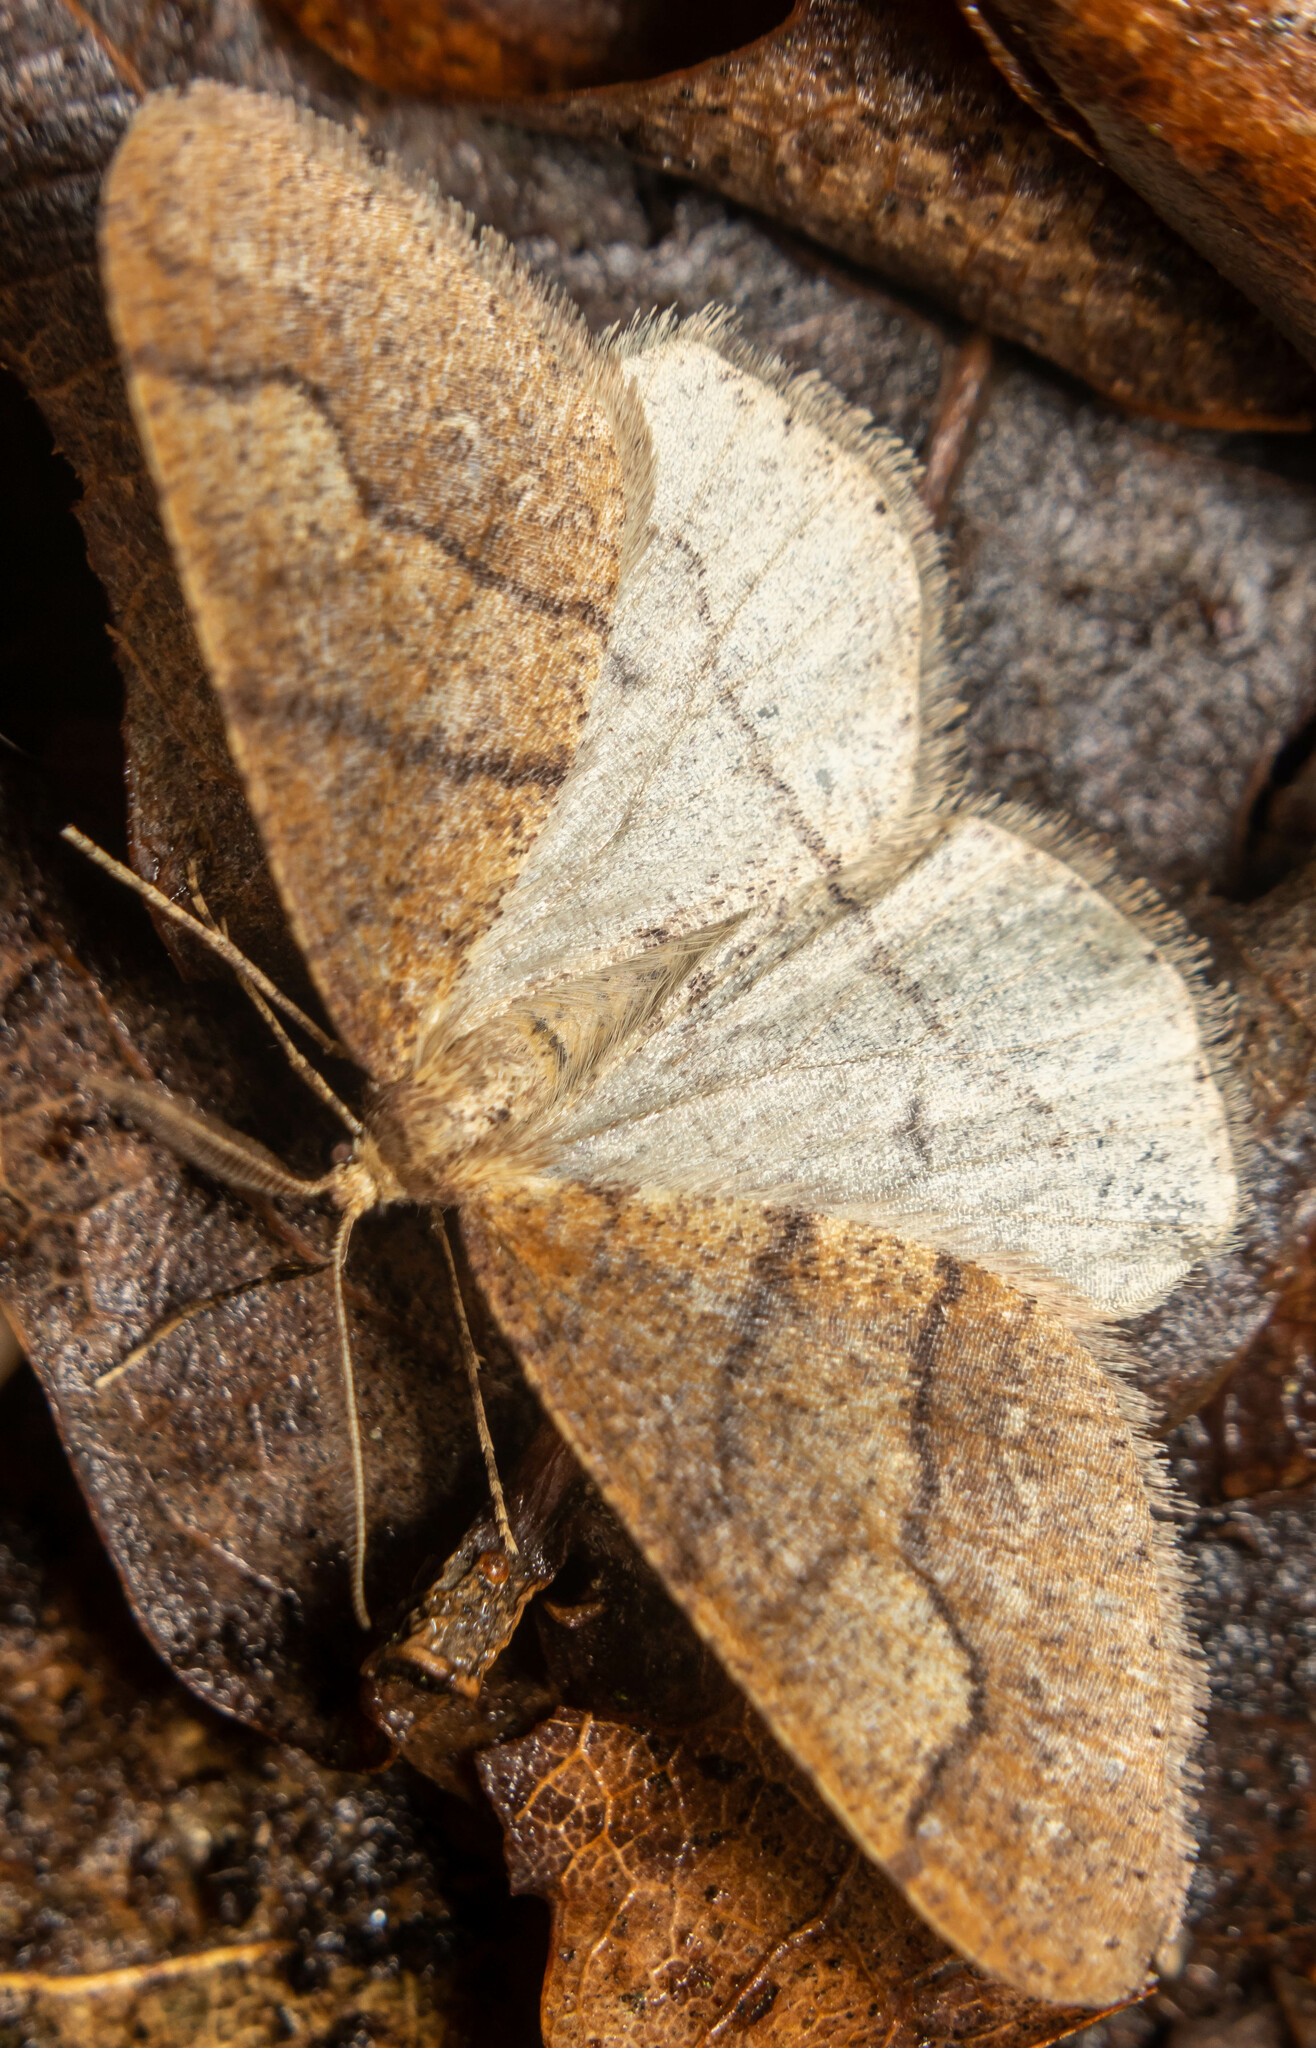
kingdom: Animalia
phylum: Arthropoda
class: Insecta
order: Lepidoptera
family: Geometridae
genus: Agriopis
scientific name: Agriopis marginaria
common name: Dotted border
